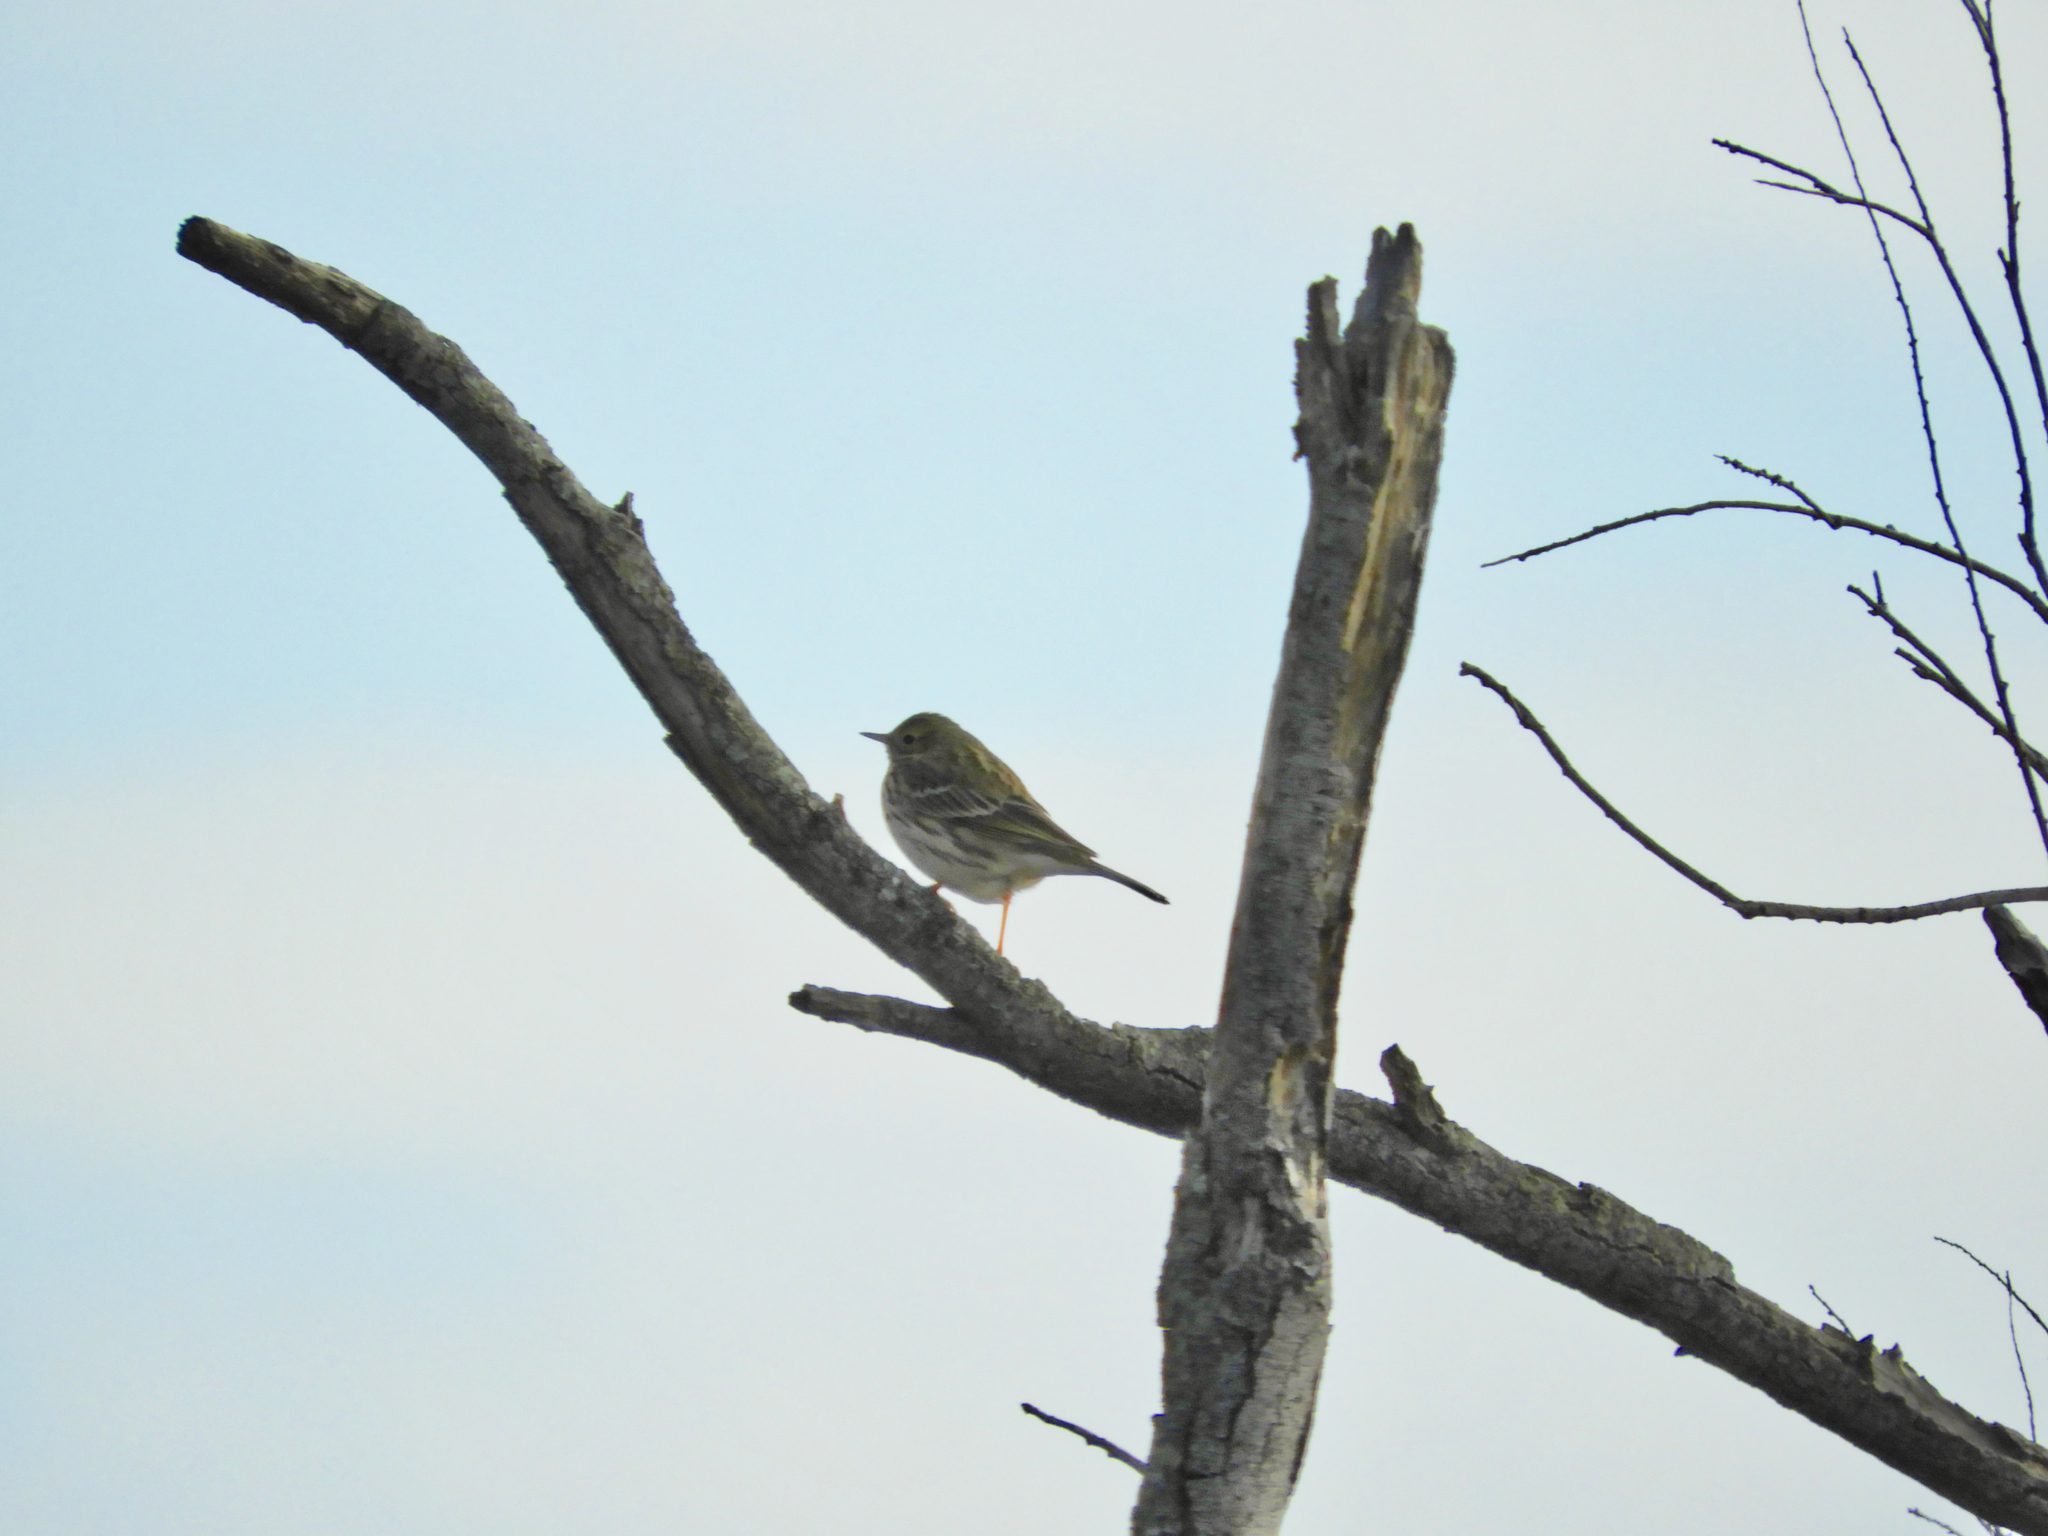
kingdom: Animalia
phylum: Chordata
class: Aves
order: Passeriformes
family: Motacillidae
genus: Anthus
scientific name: Anthus pratensis
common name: Meadow pipit
